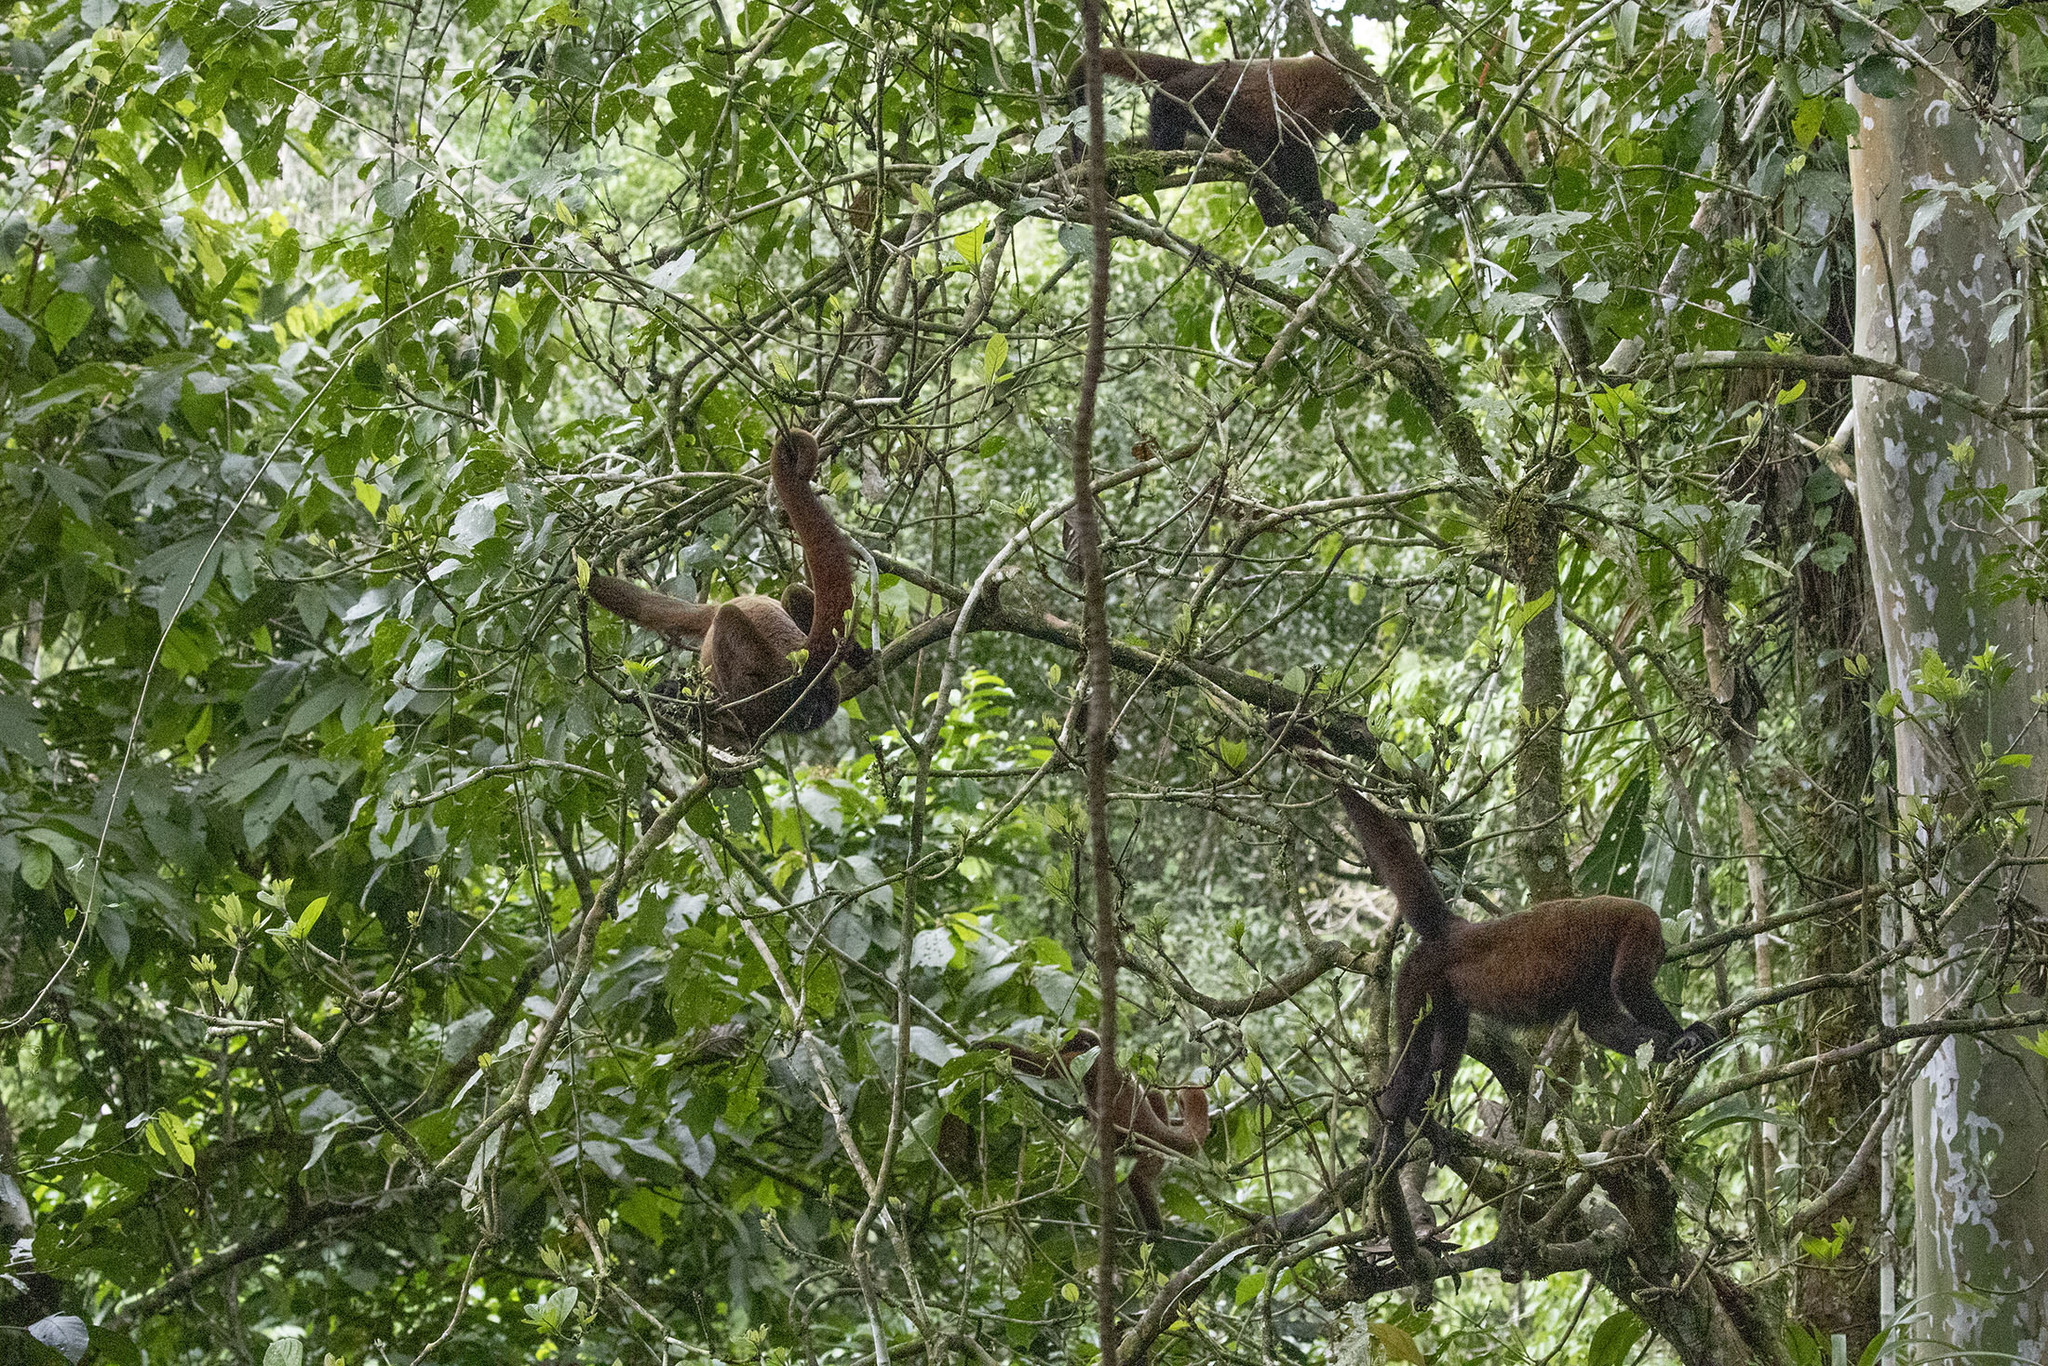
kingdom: Animalia
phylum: Chordata
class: Mammalia
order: Primates
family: Atelidae
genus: Lagothrix
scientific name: Lagothrix lagothricha
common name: Brown woolly monkey
